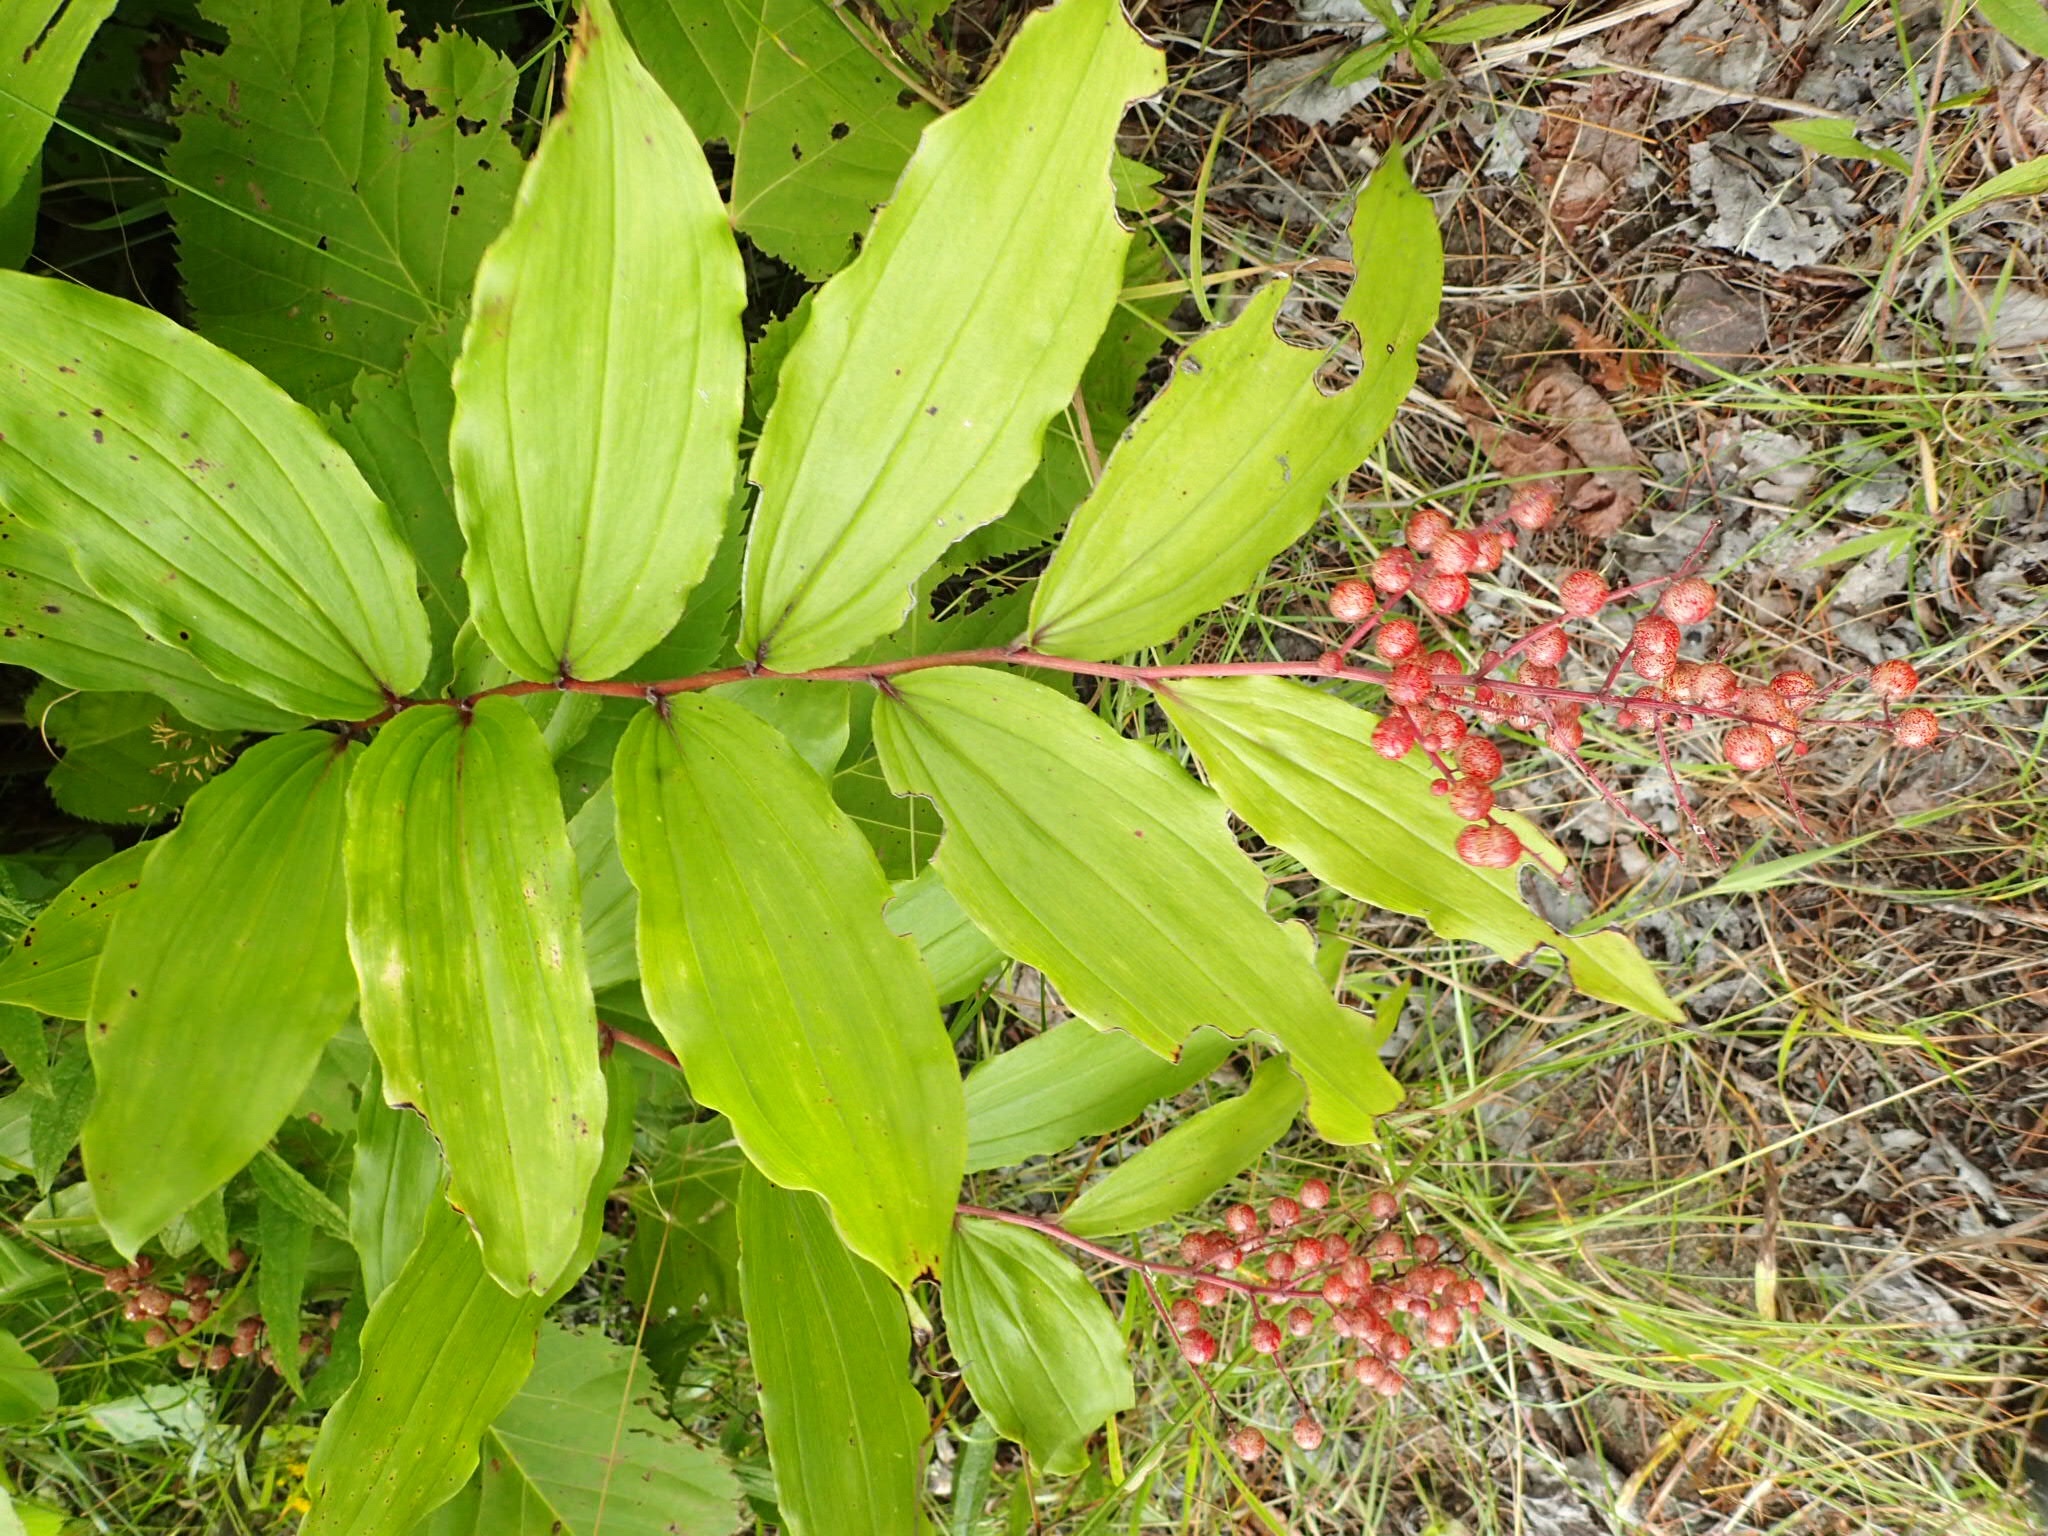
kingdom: Plantae
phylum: Tracheophyta
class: Liliopsida
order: Asparagales
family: Asparagaceae
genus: Maianthemum
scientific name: Maianthemum racemosum
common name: False spikenard
